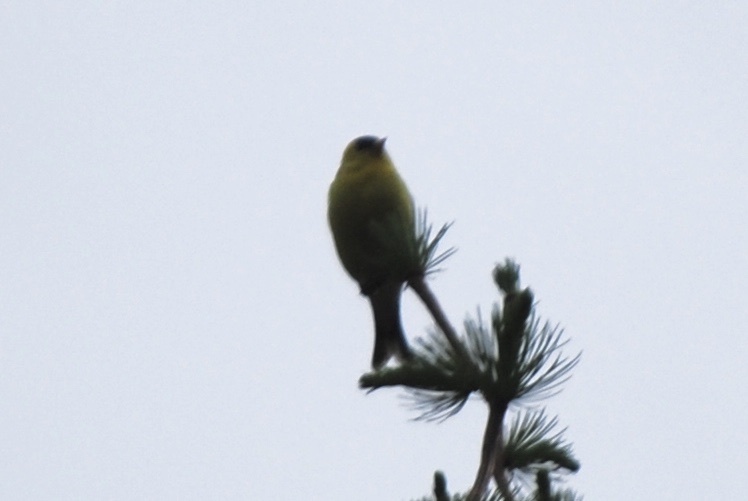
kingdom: Animalia
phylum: Chordata
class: Aves
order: Passeriformes
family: Fringillidae
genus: Spinus
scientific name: Spinus tristis
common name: American goldfinch
